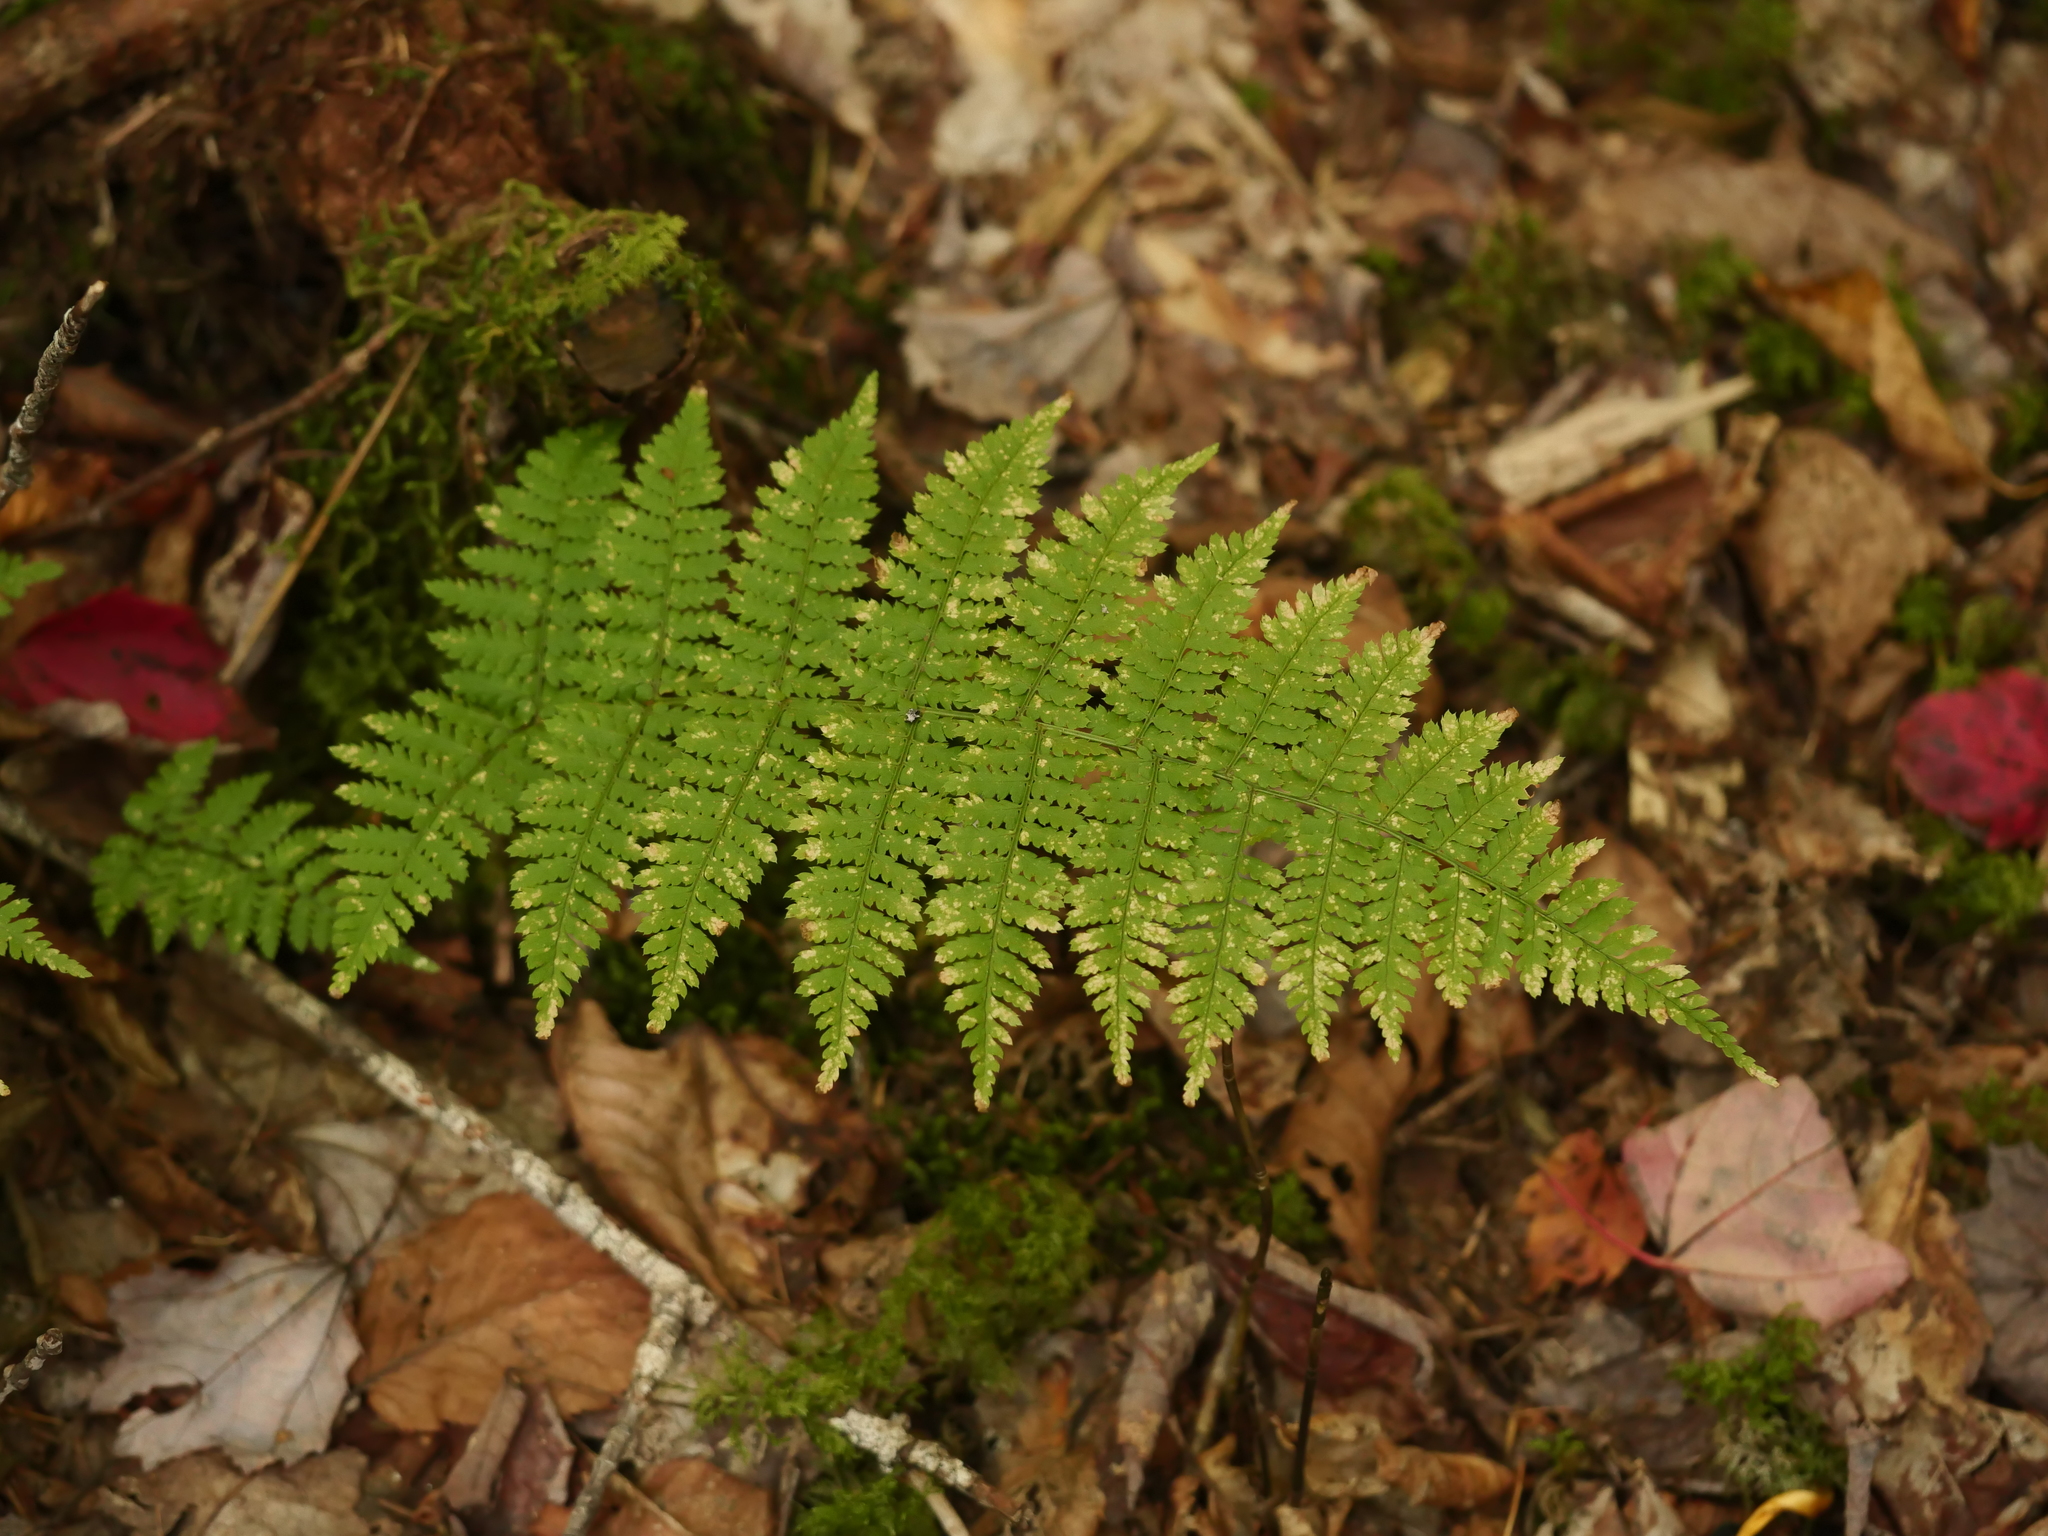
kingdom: Plantae
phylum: Tracheophyta
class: Polypodiopsida
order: Polypodiales
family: Dryopteridaceae
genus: Dryopteris
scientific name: Dryopteris intermedia
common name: Evergreen wood fern
